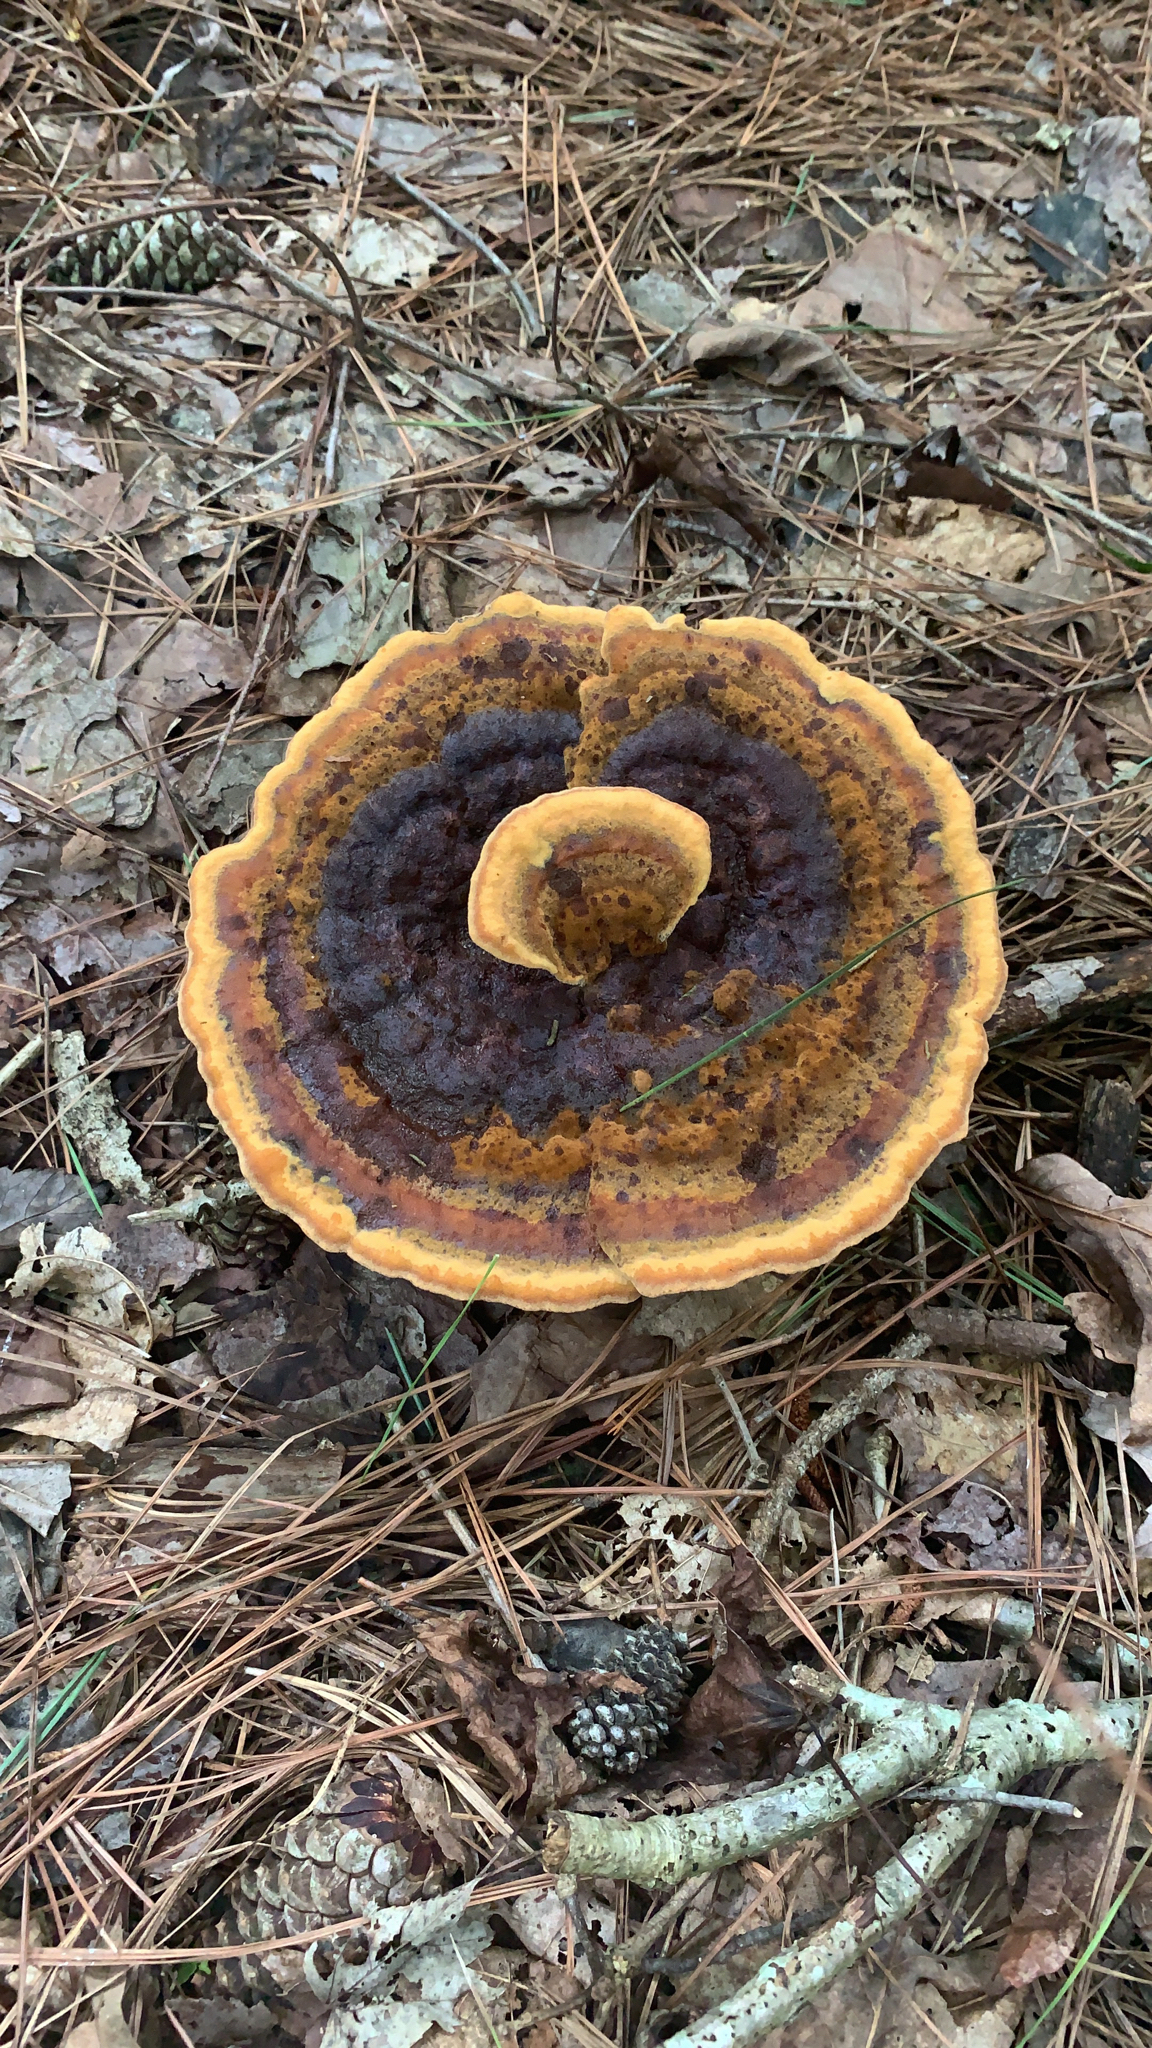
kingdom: Fungi
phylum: Basidiomycota
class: Agaricomycetes
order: Polyporales
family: Laetiporaceae
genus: Phaeolus
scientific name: Phaeolus schweinitzii
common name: Dyer's mazegill
